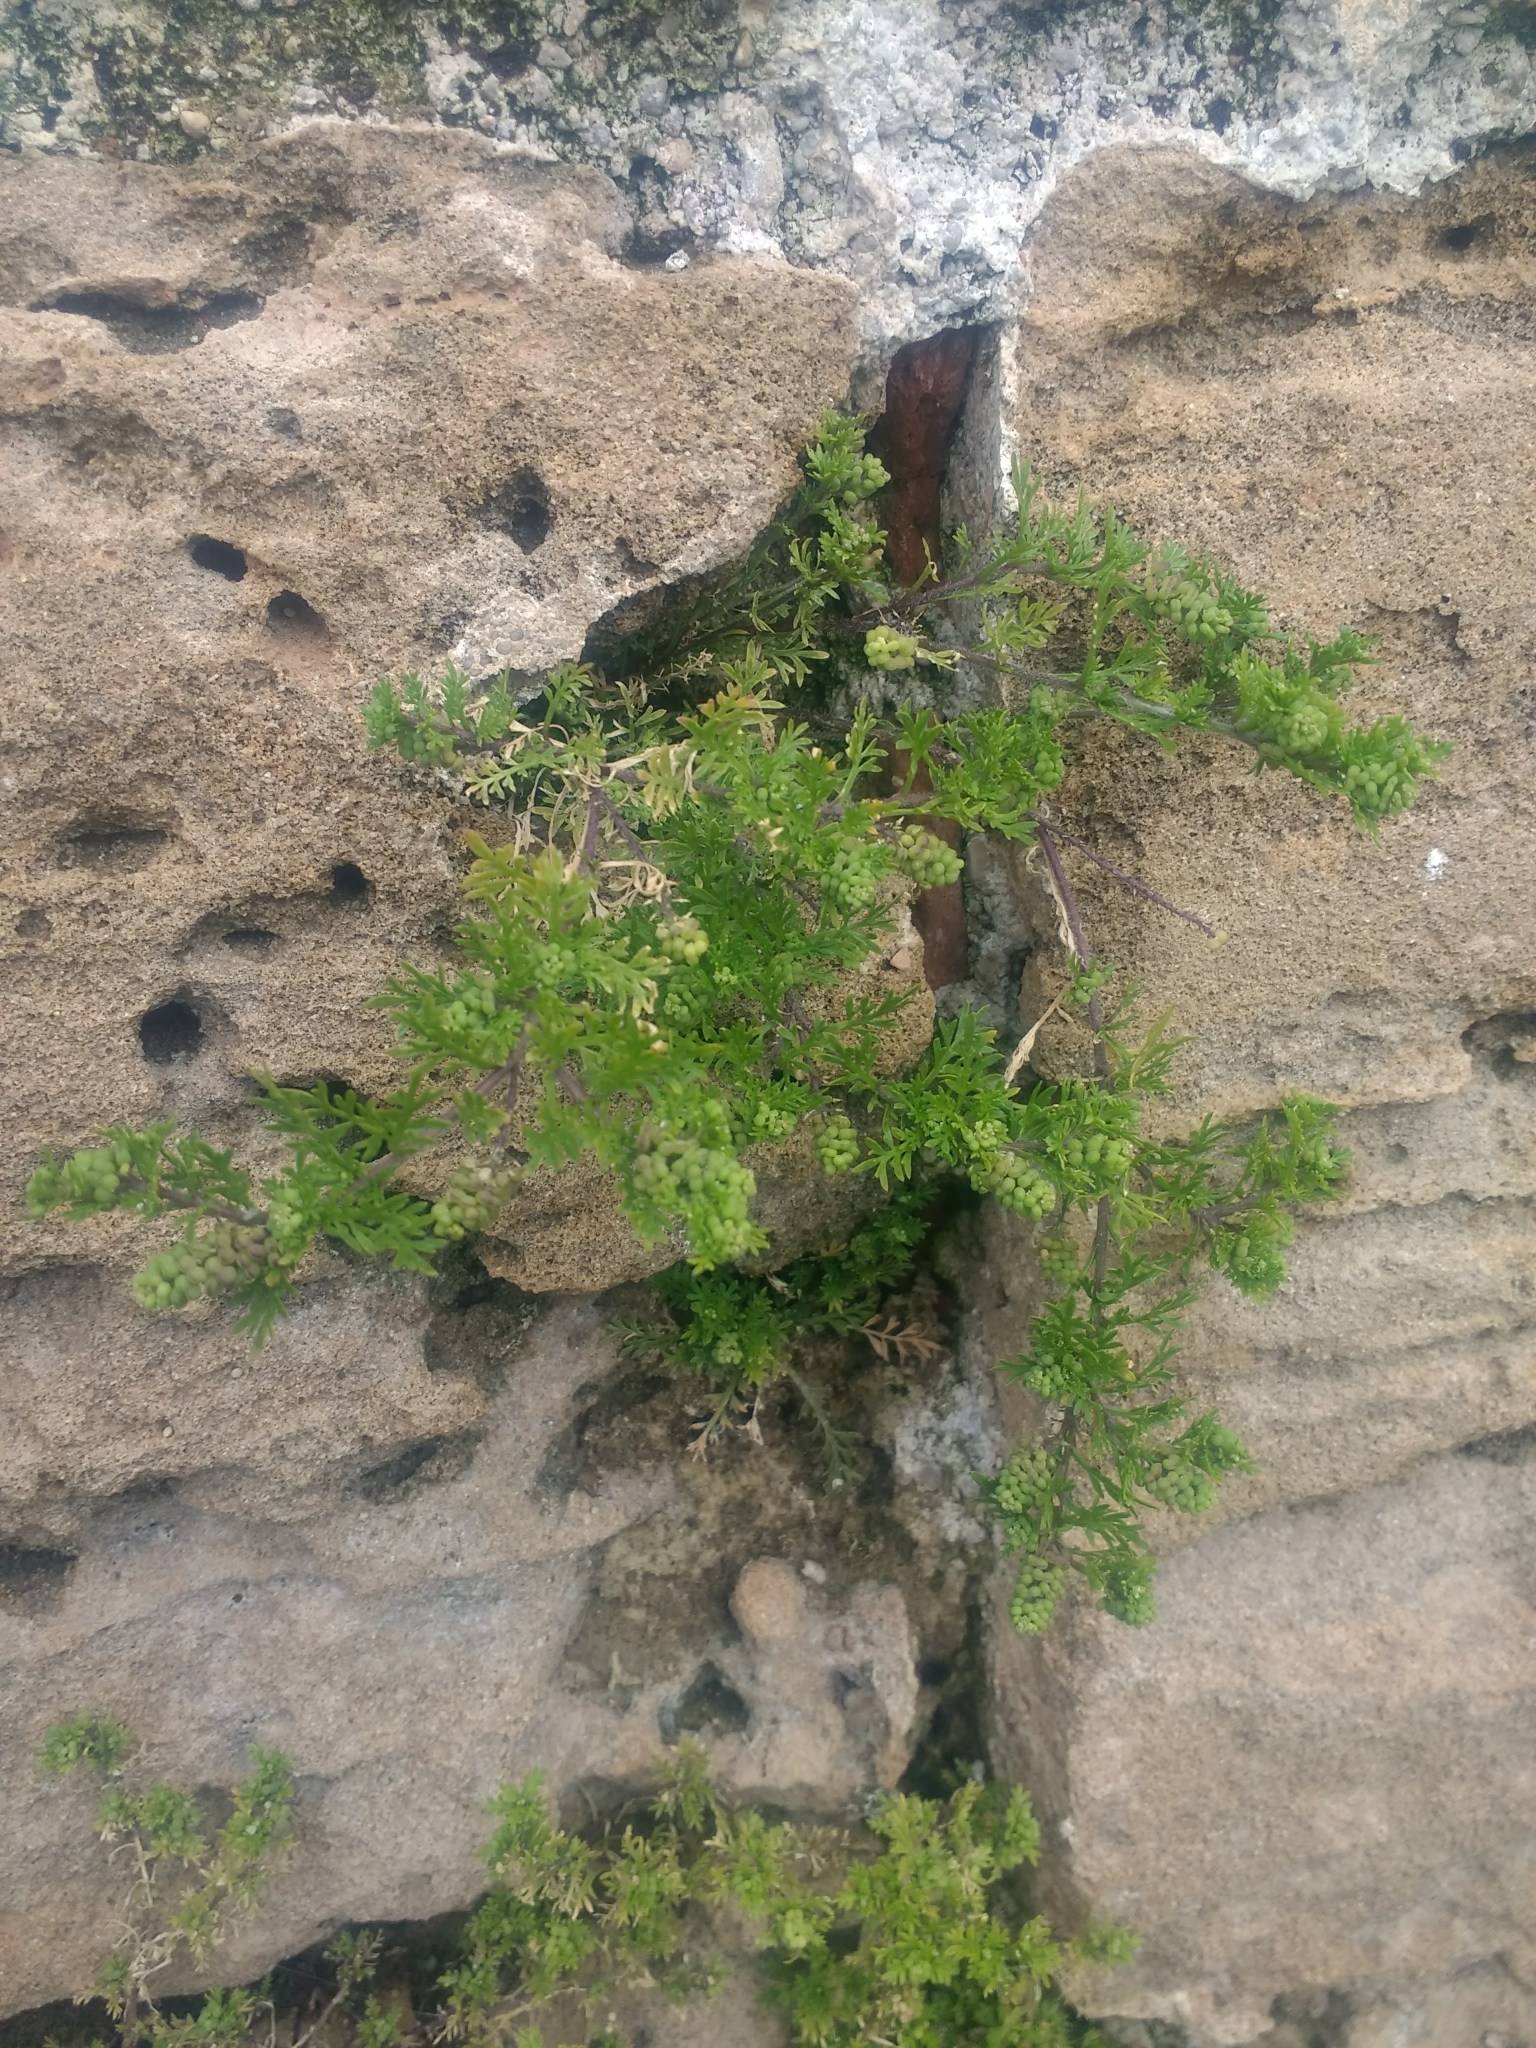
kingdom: Plantae
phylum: Tracheophyta
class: Magnoliopsida
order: Brassicales
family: Brassicaceae
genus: Lepidium
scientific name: Lepidium didymum
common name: Lesser swinecress
